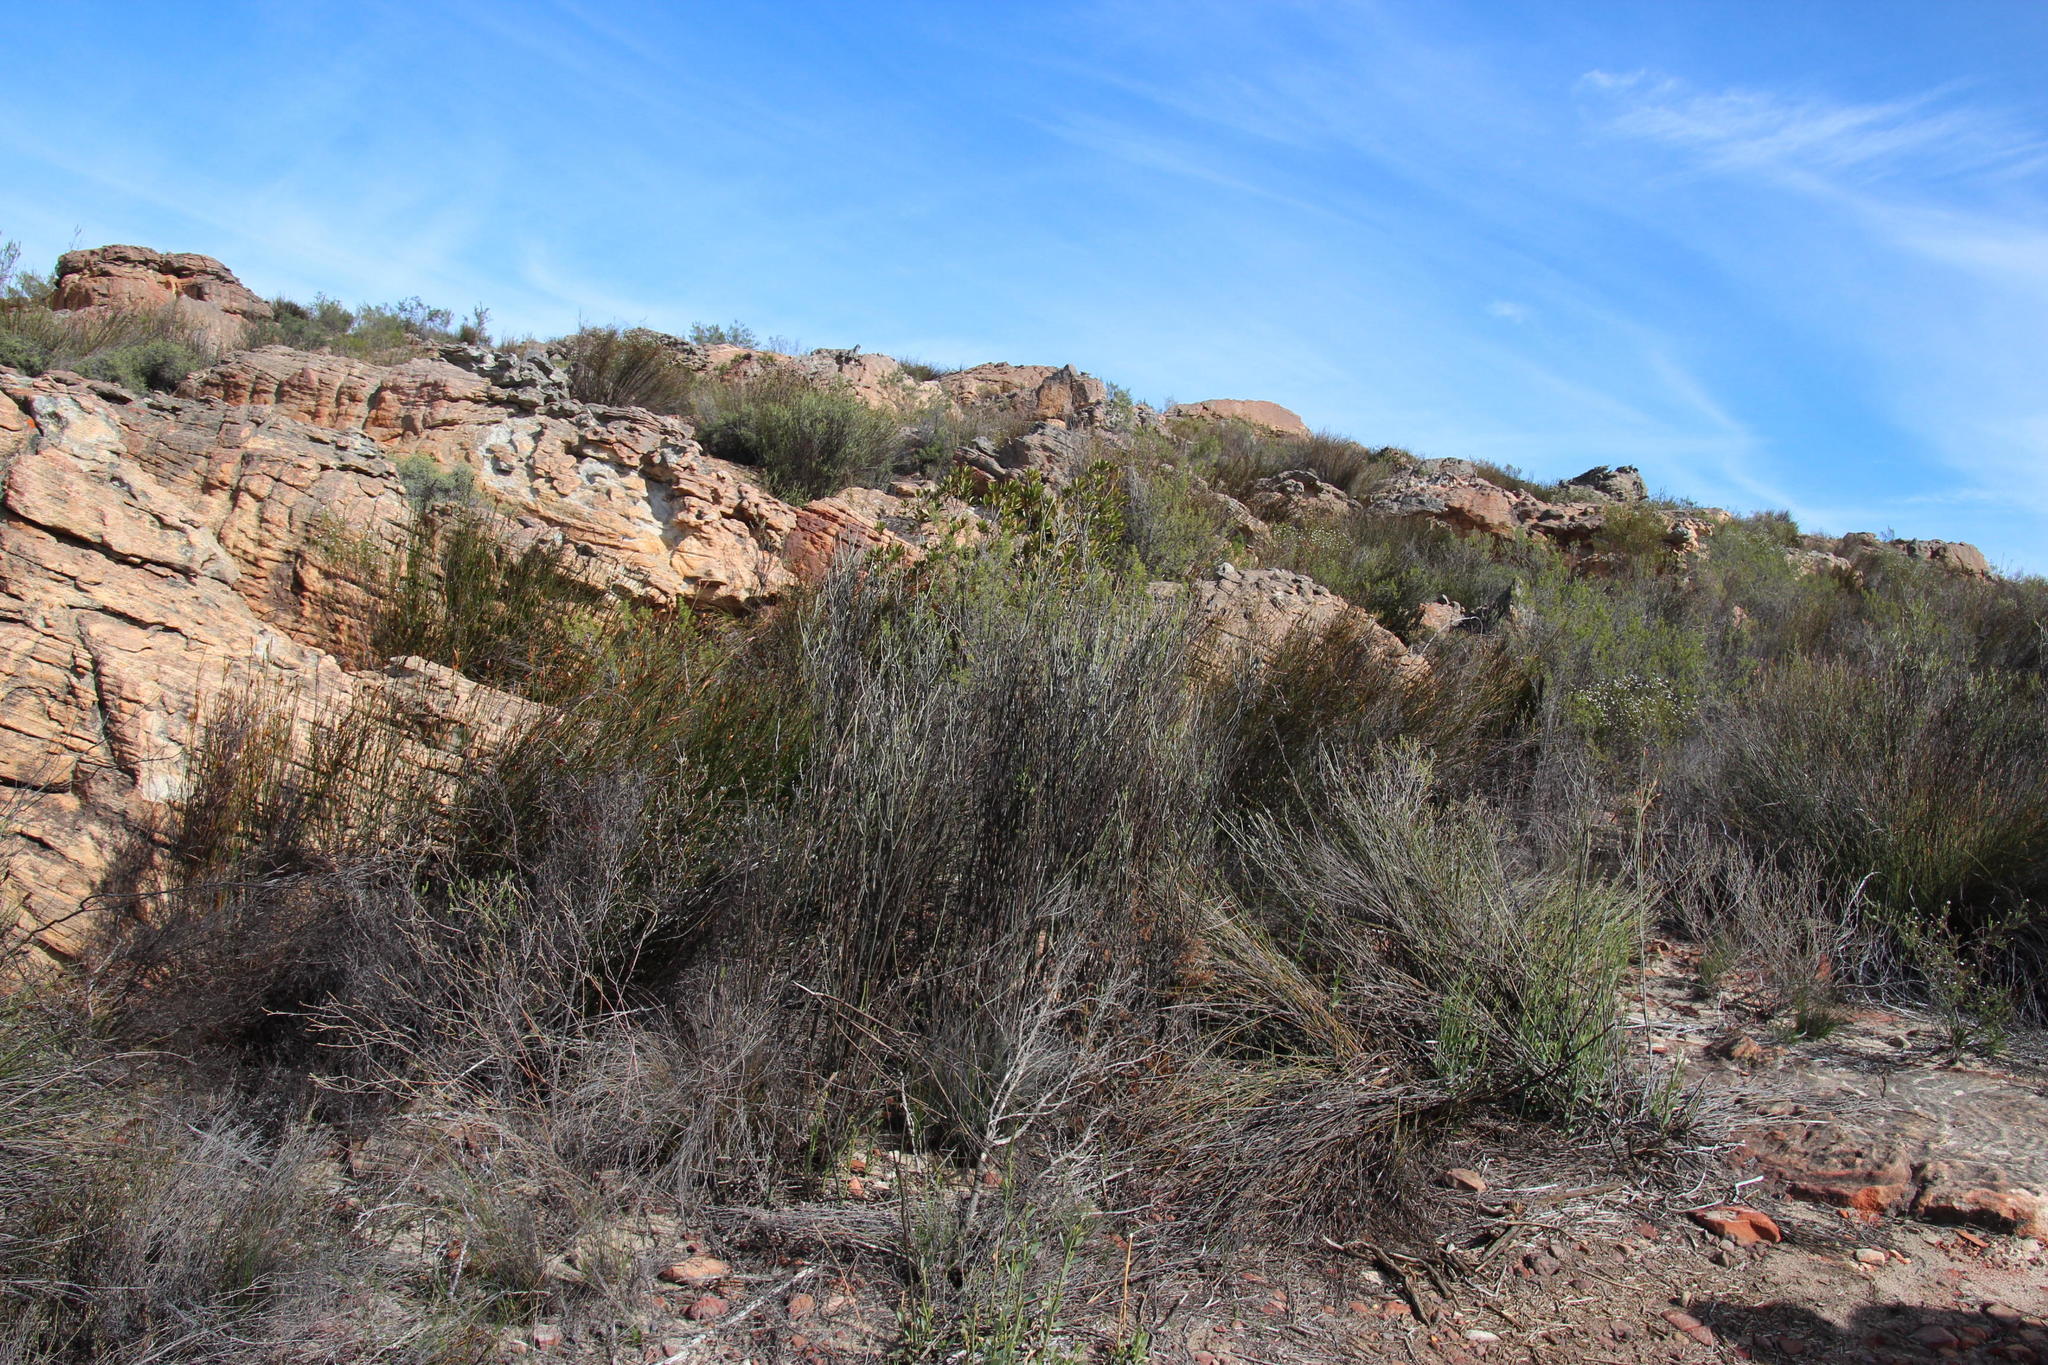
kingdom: Plantae
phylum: Tracheophyta
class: Magnoliopsida
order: Solanales
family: Montiniaceae
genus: Montinia
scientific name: Montinia caryophyllacea
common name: Wild clove-bush
